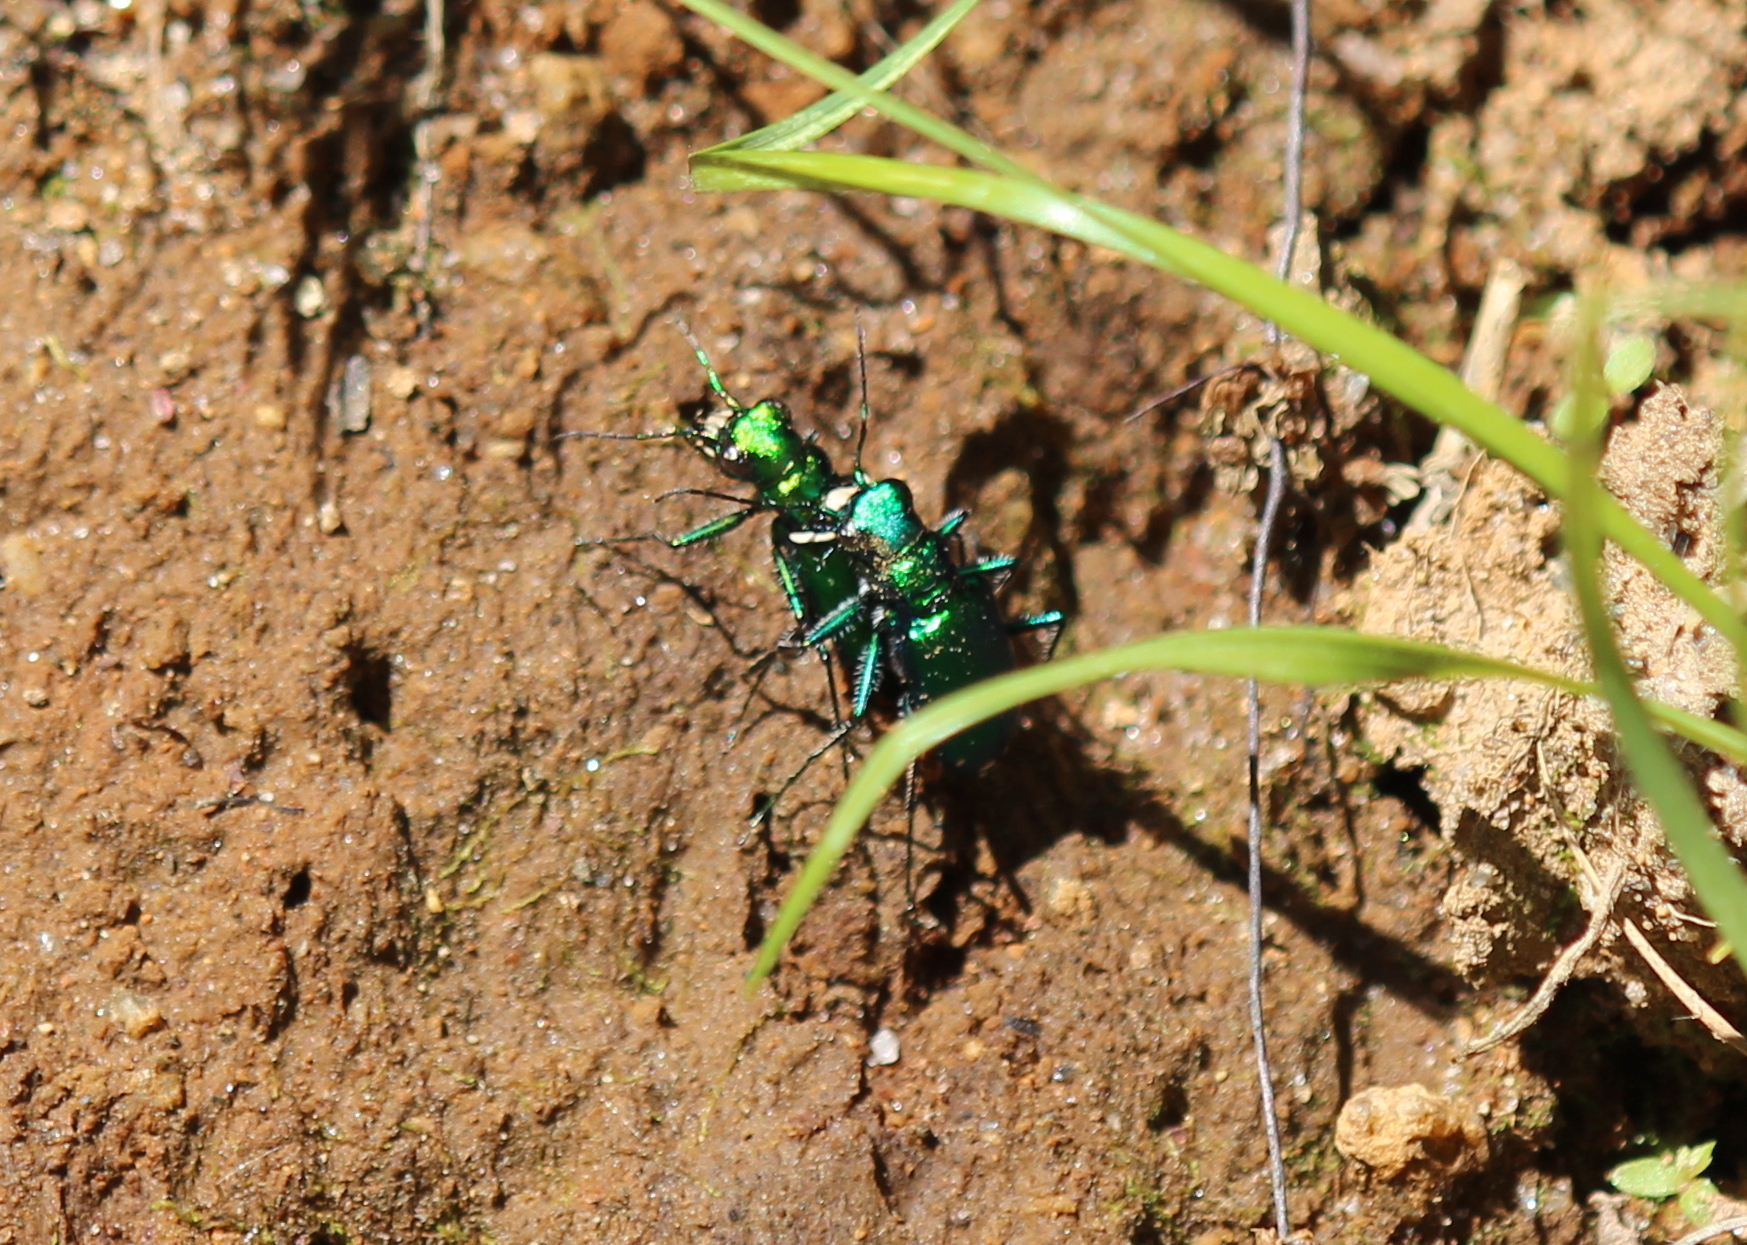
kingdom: Animalia
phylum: Arthropoda
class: Insecta
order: Coleoptera
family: Carabidae
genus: Cicindela
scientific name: Cicindela sexguttata
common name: Six-spotted tiger beetle
